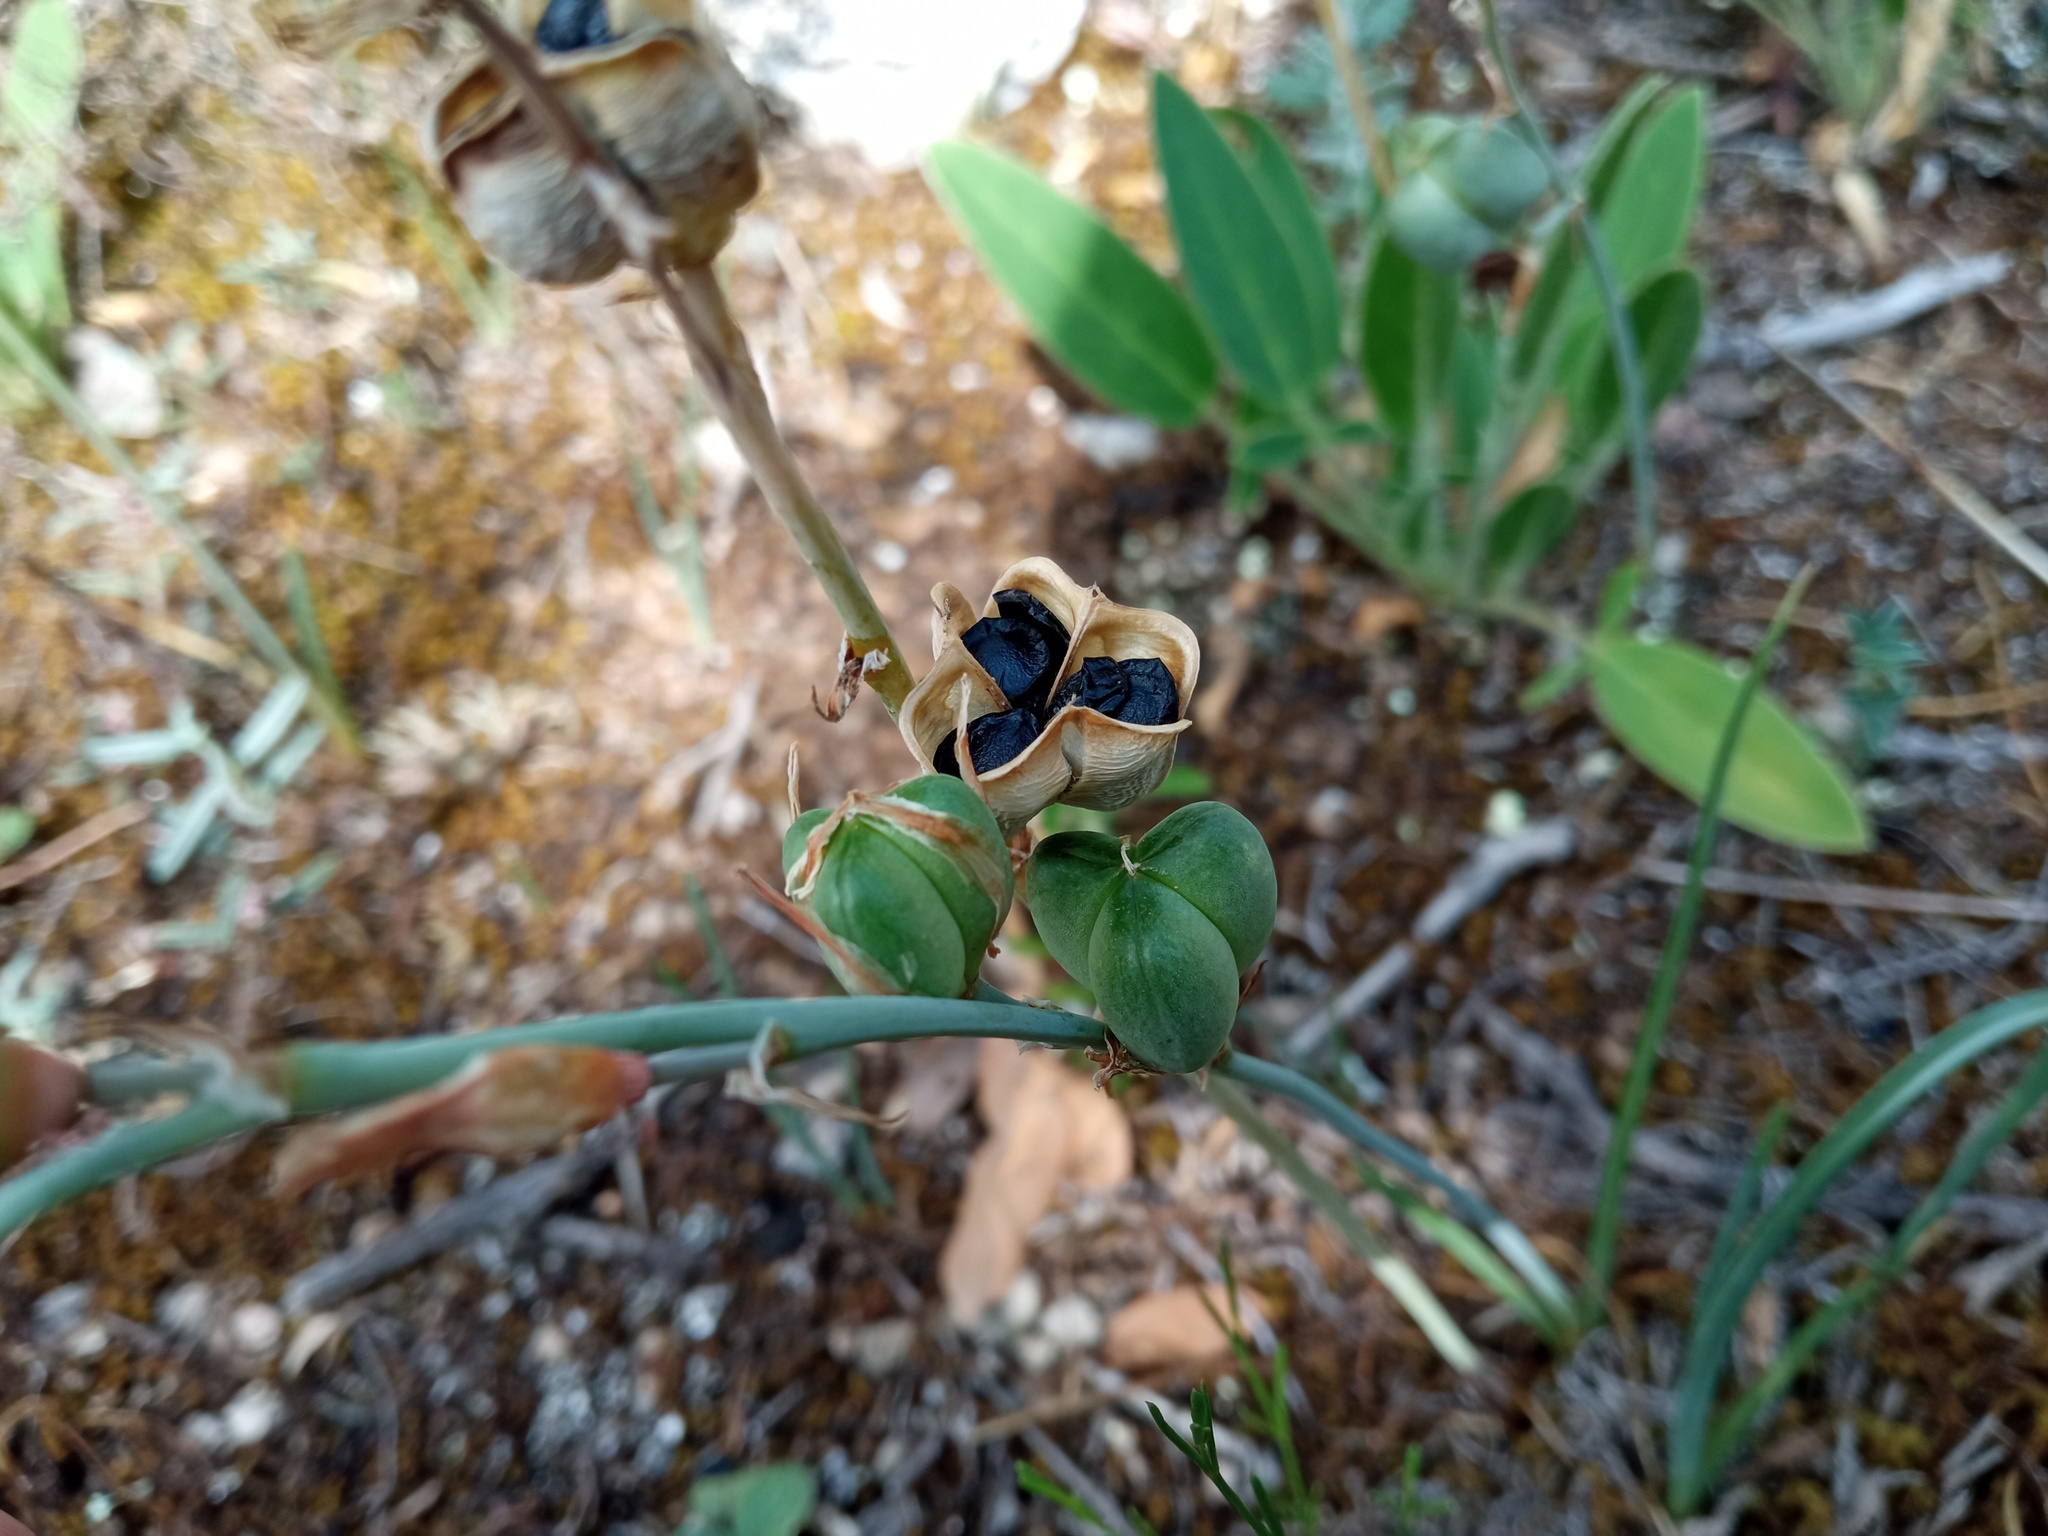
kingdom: Plantae
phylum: Tracheophyta
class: Liliopsida
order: Asparagales
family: Asparagaceae
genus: Dipcadi
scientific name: Dipcadi serotinum
